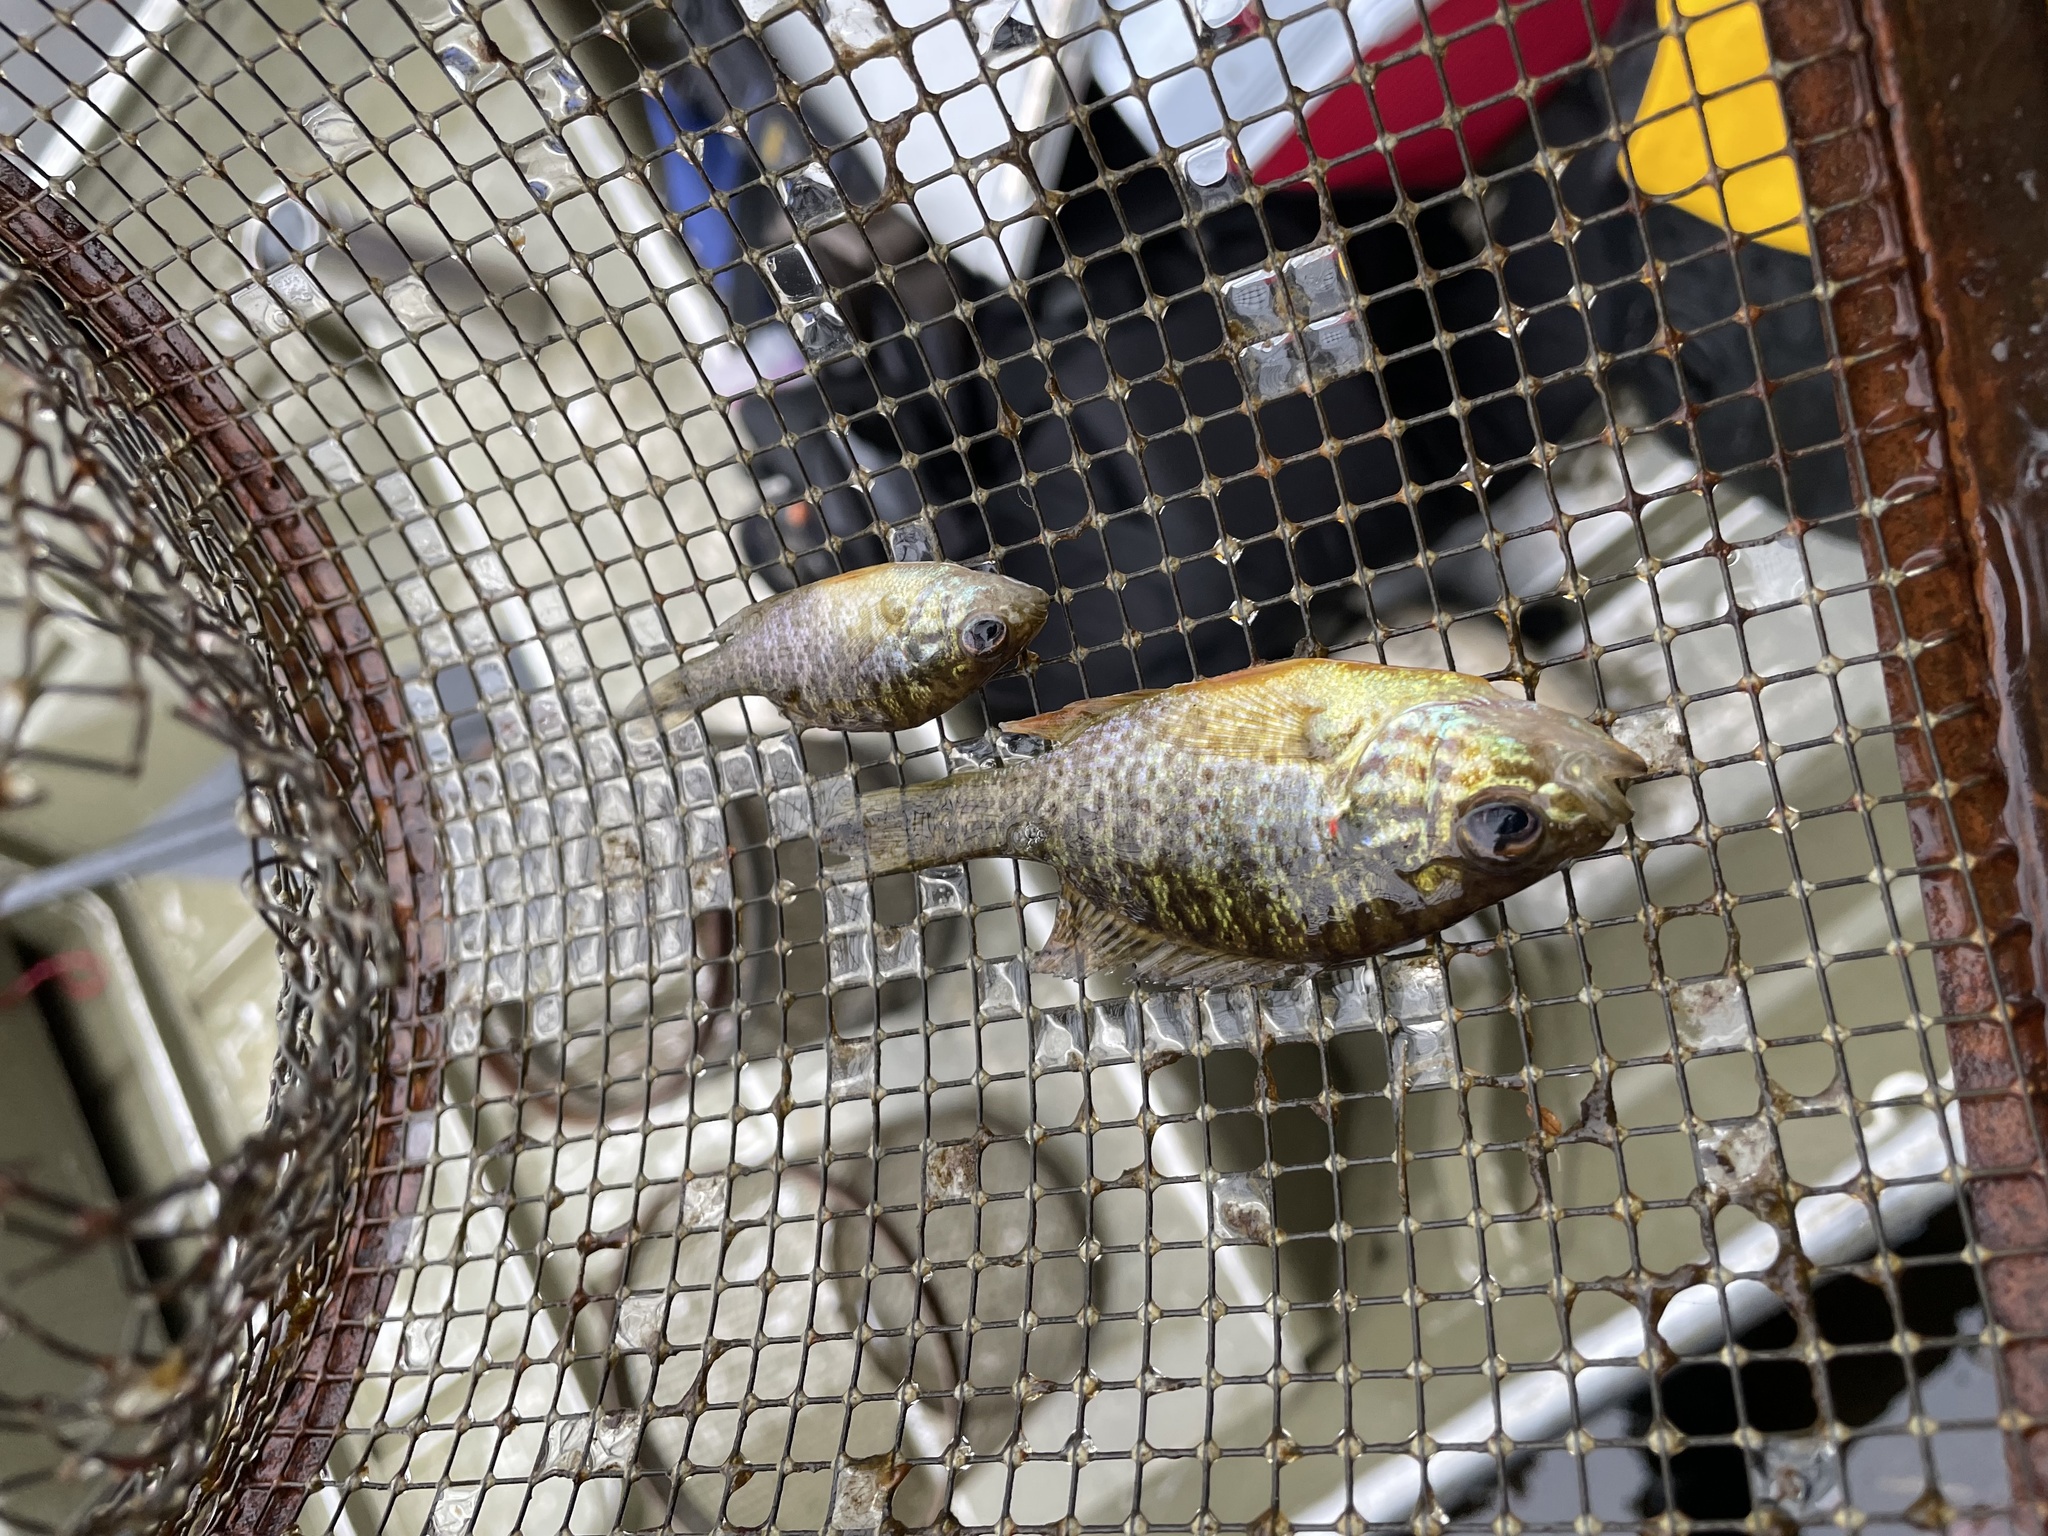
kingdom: Animalia
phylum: Chordata
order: Perciformes
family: Centrarchidae
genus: Lepomis
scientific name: Lepomis gibbosus
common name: Pumpkinseed
